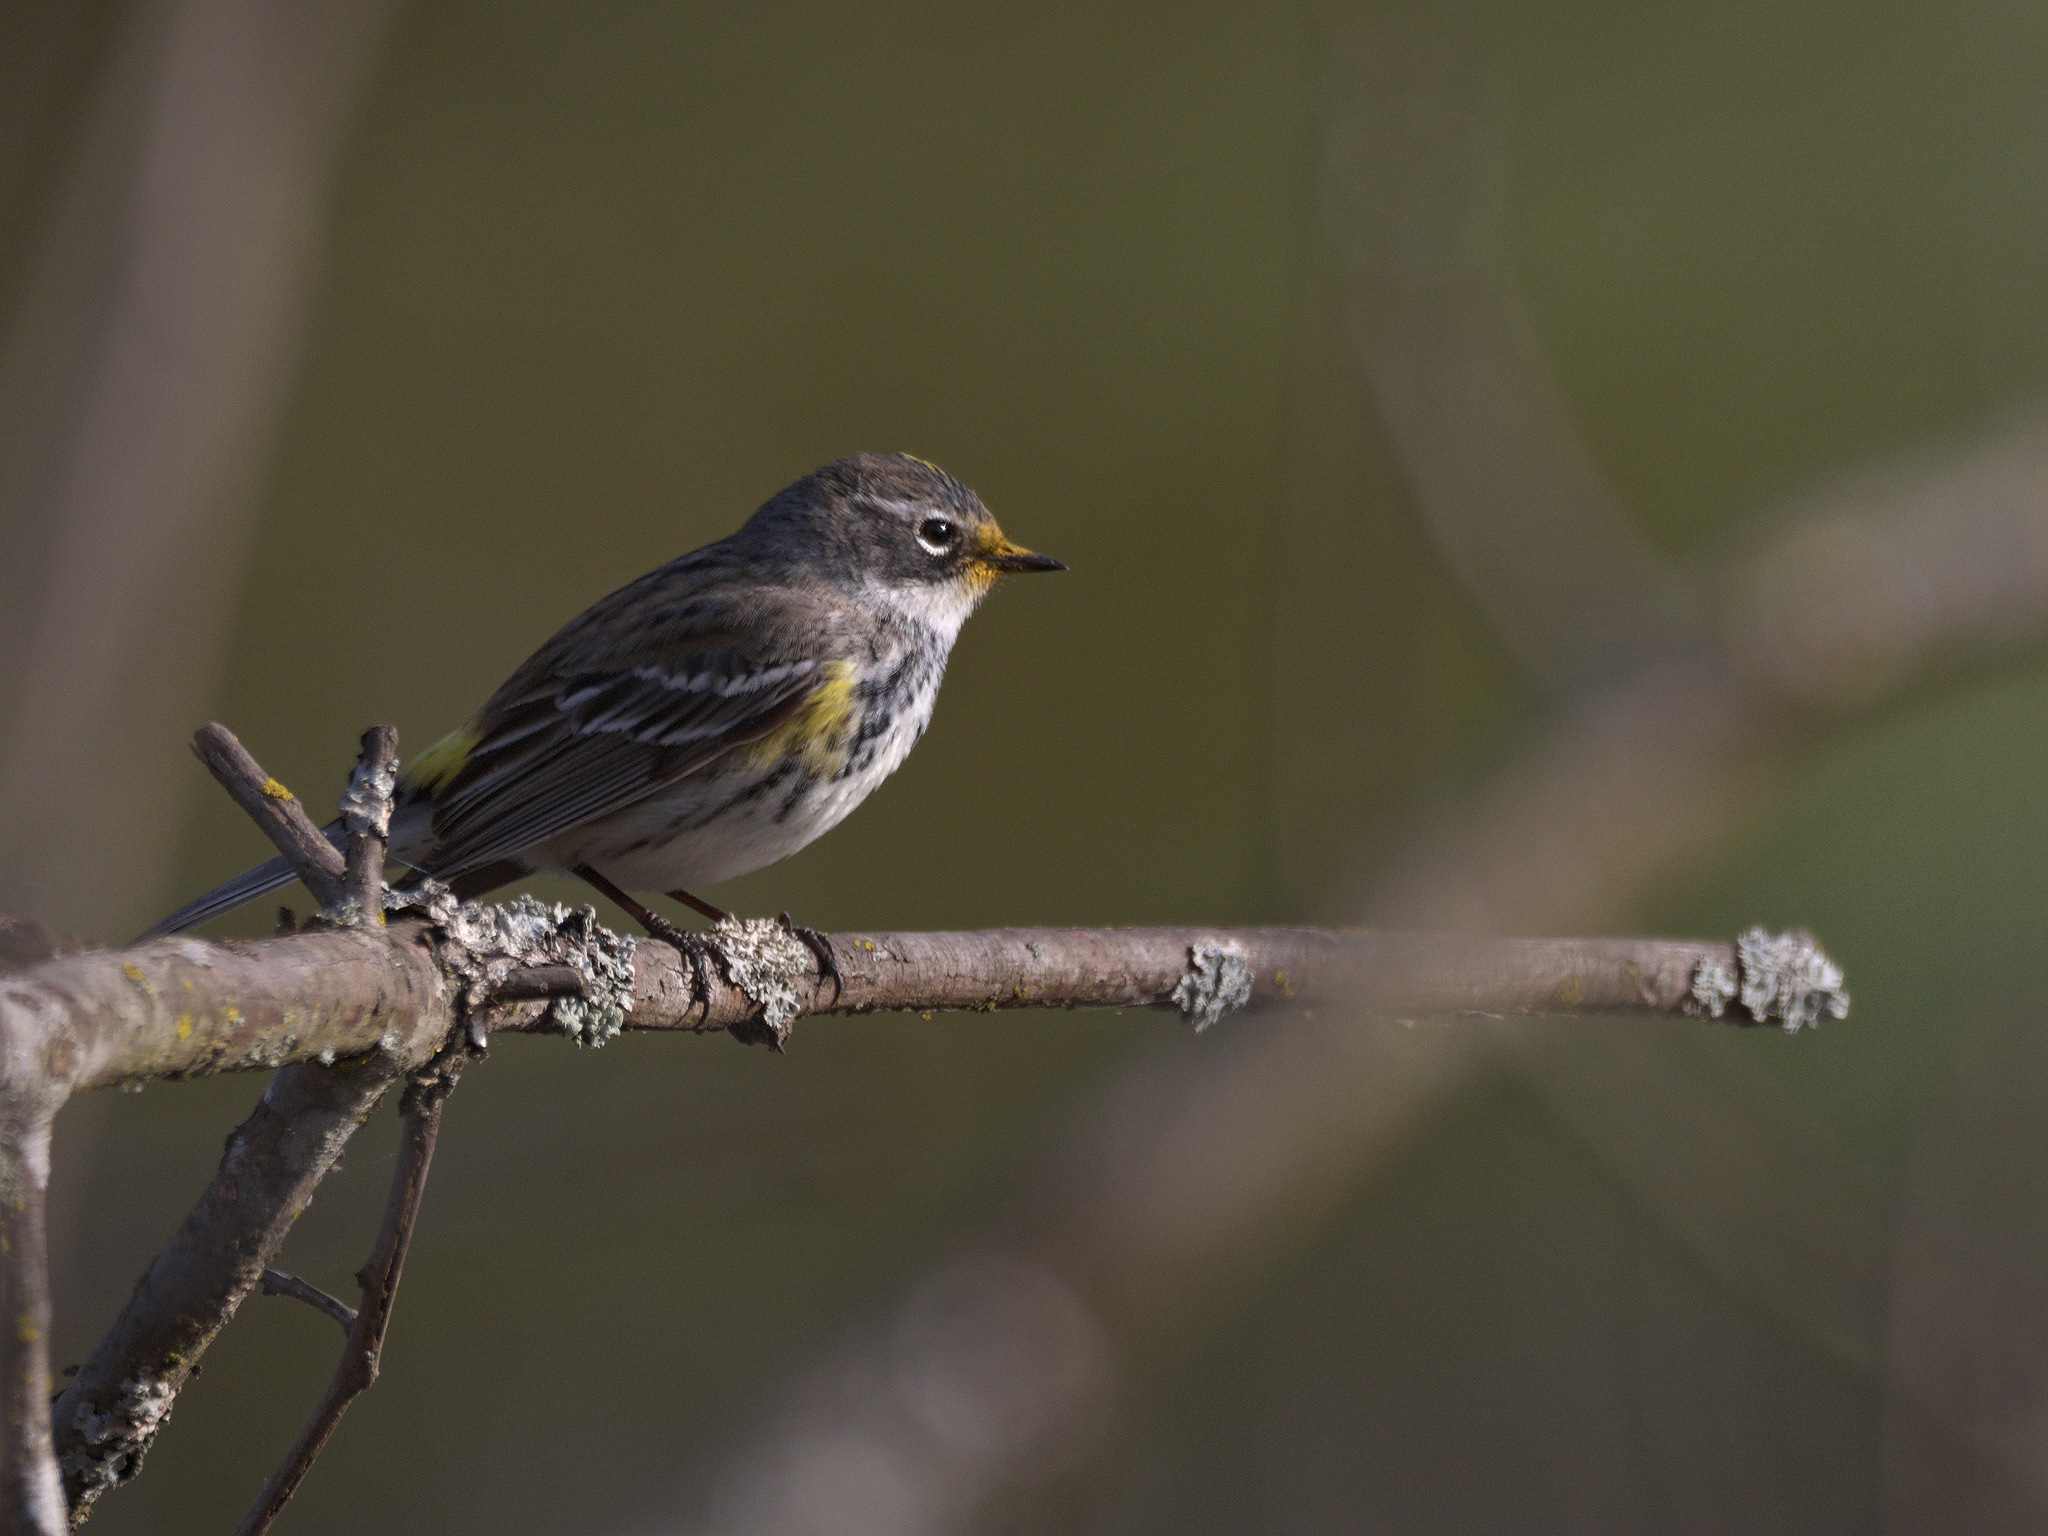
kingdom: Animalia
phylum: Chordata
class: Aves
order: Passeriformes
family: Parulidae
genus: Setophaga
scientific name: Setophaga coronata
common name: Myrtle warbler
